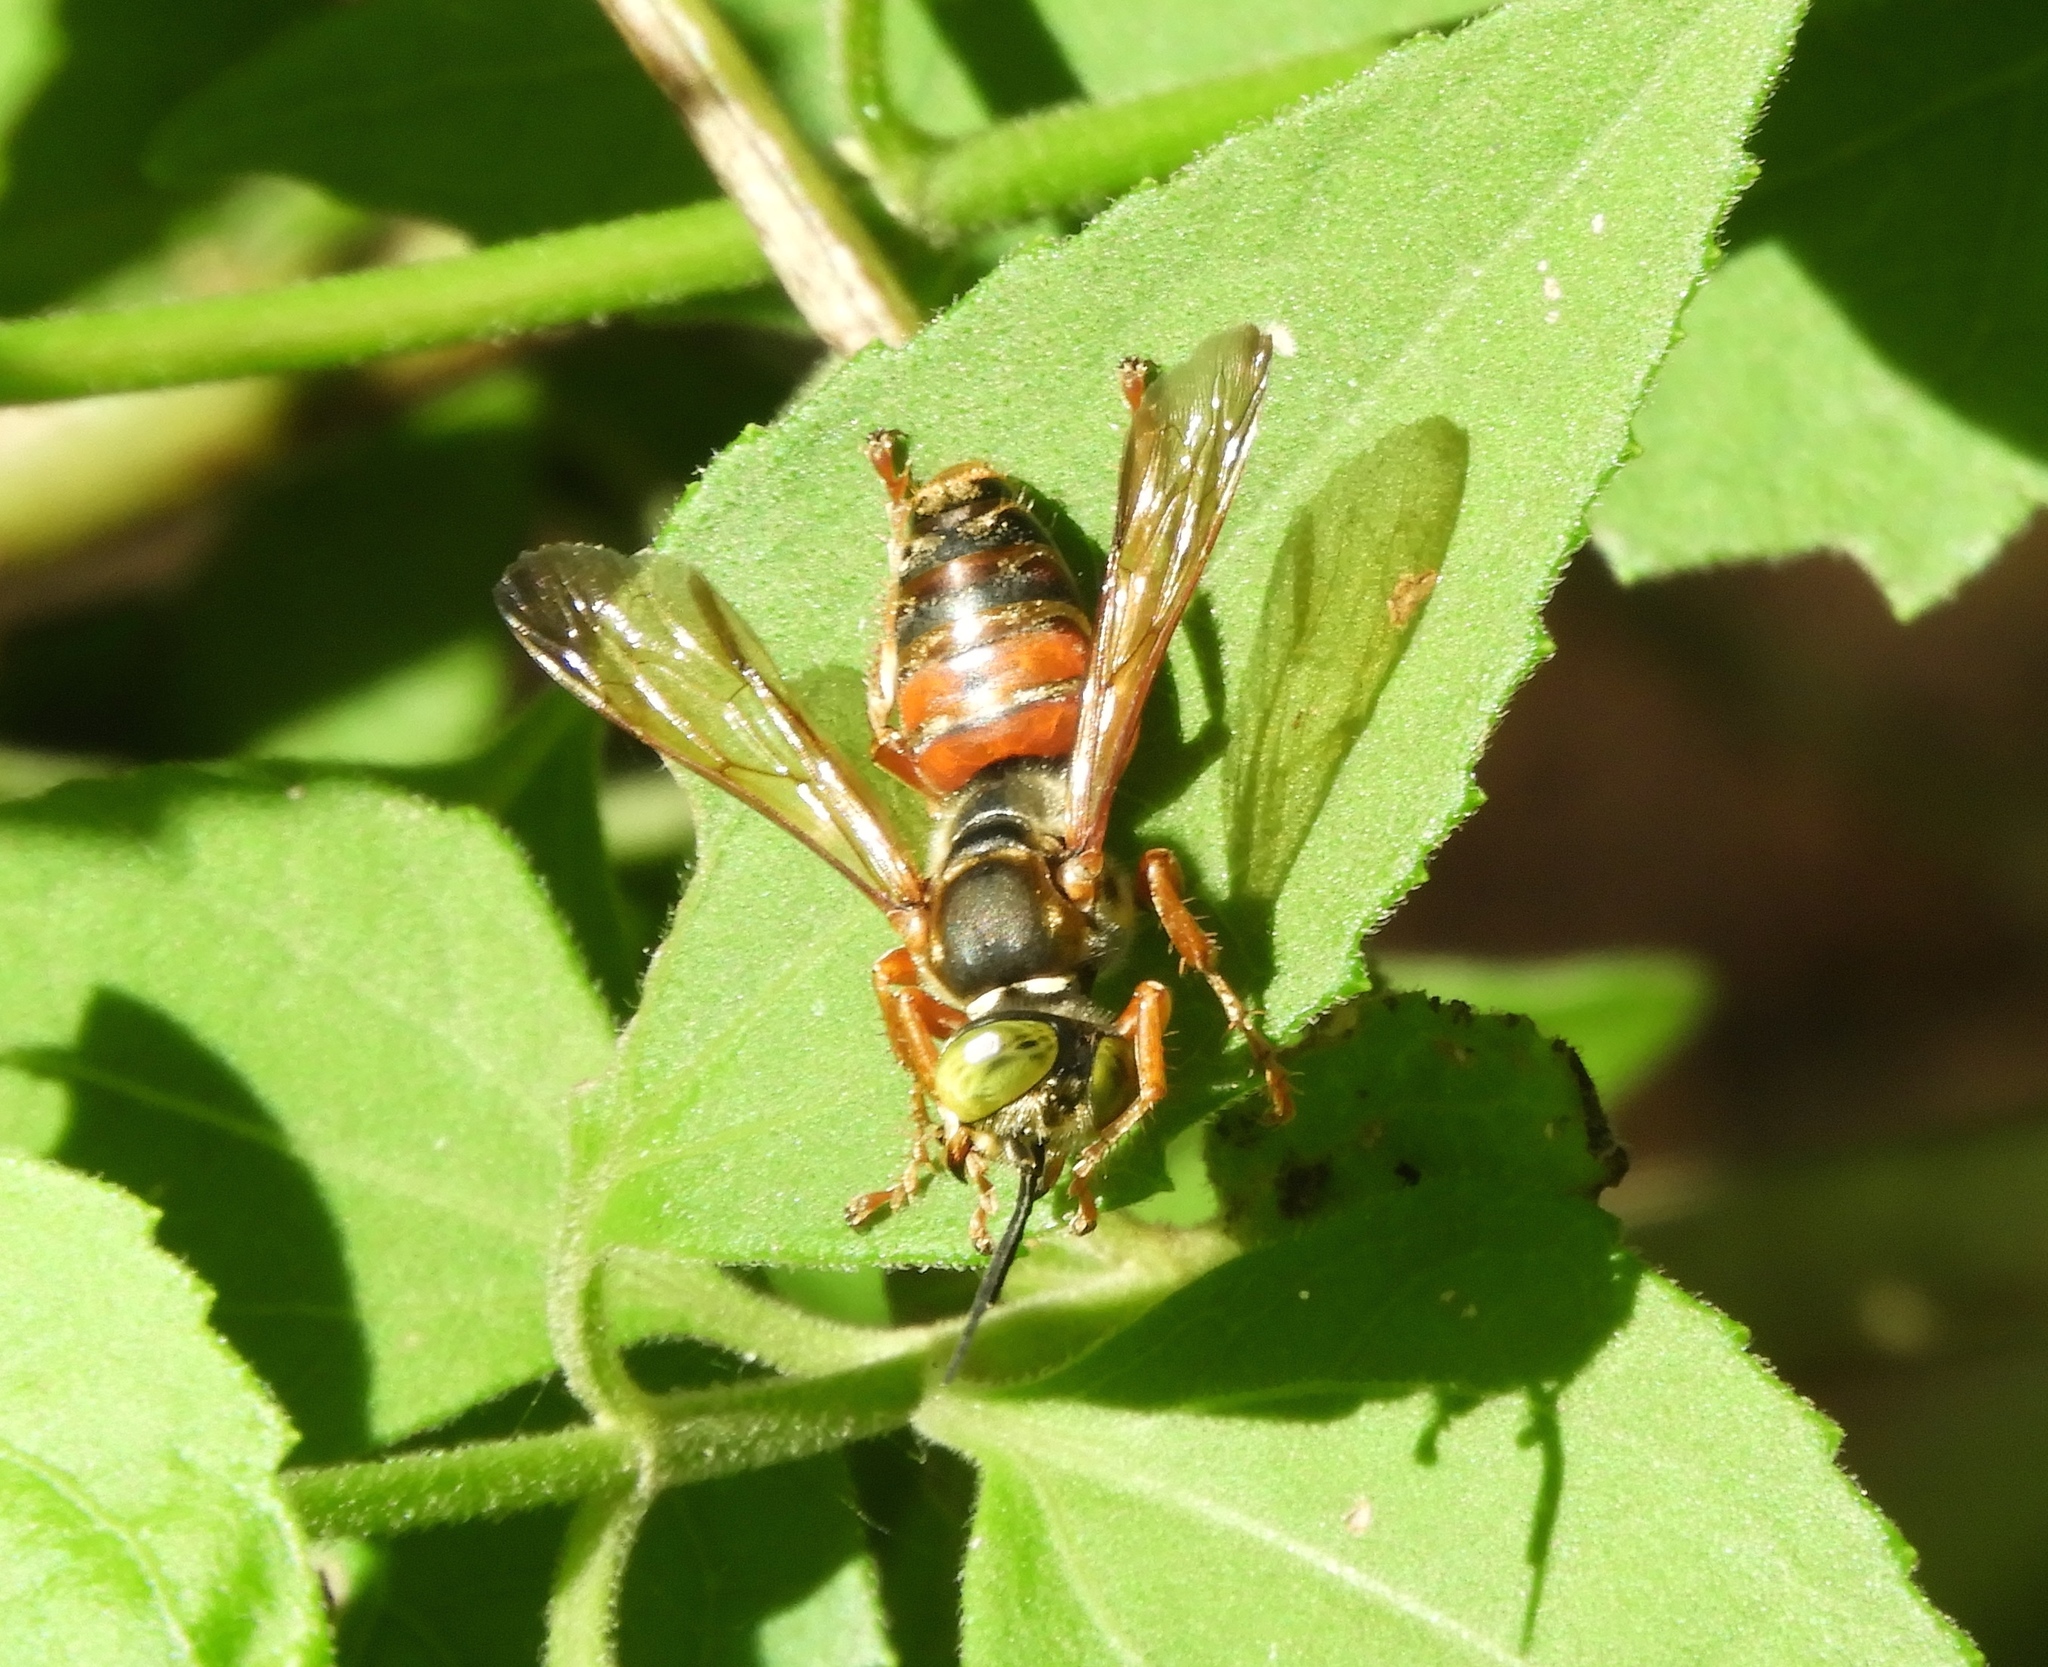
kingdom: Animalia
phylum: Arthropoda
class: Insecta
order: Hymenoptera
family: Crabronidae
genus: Tachytes
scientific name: Tachytes
